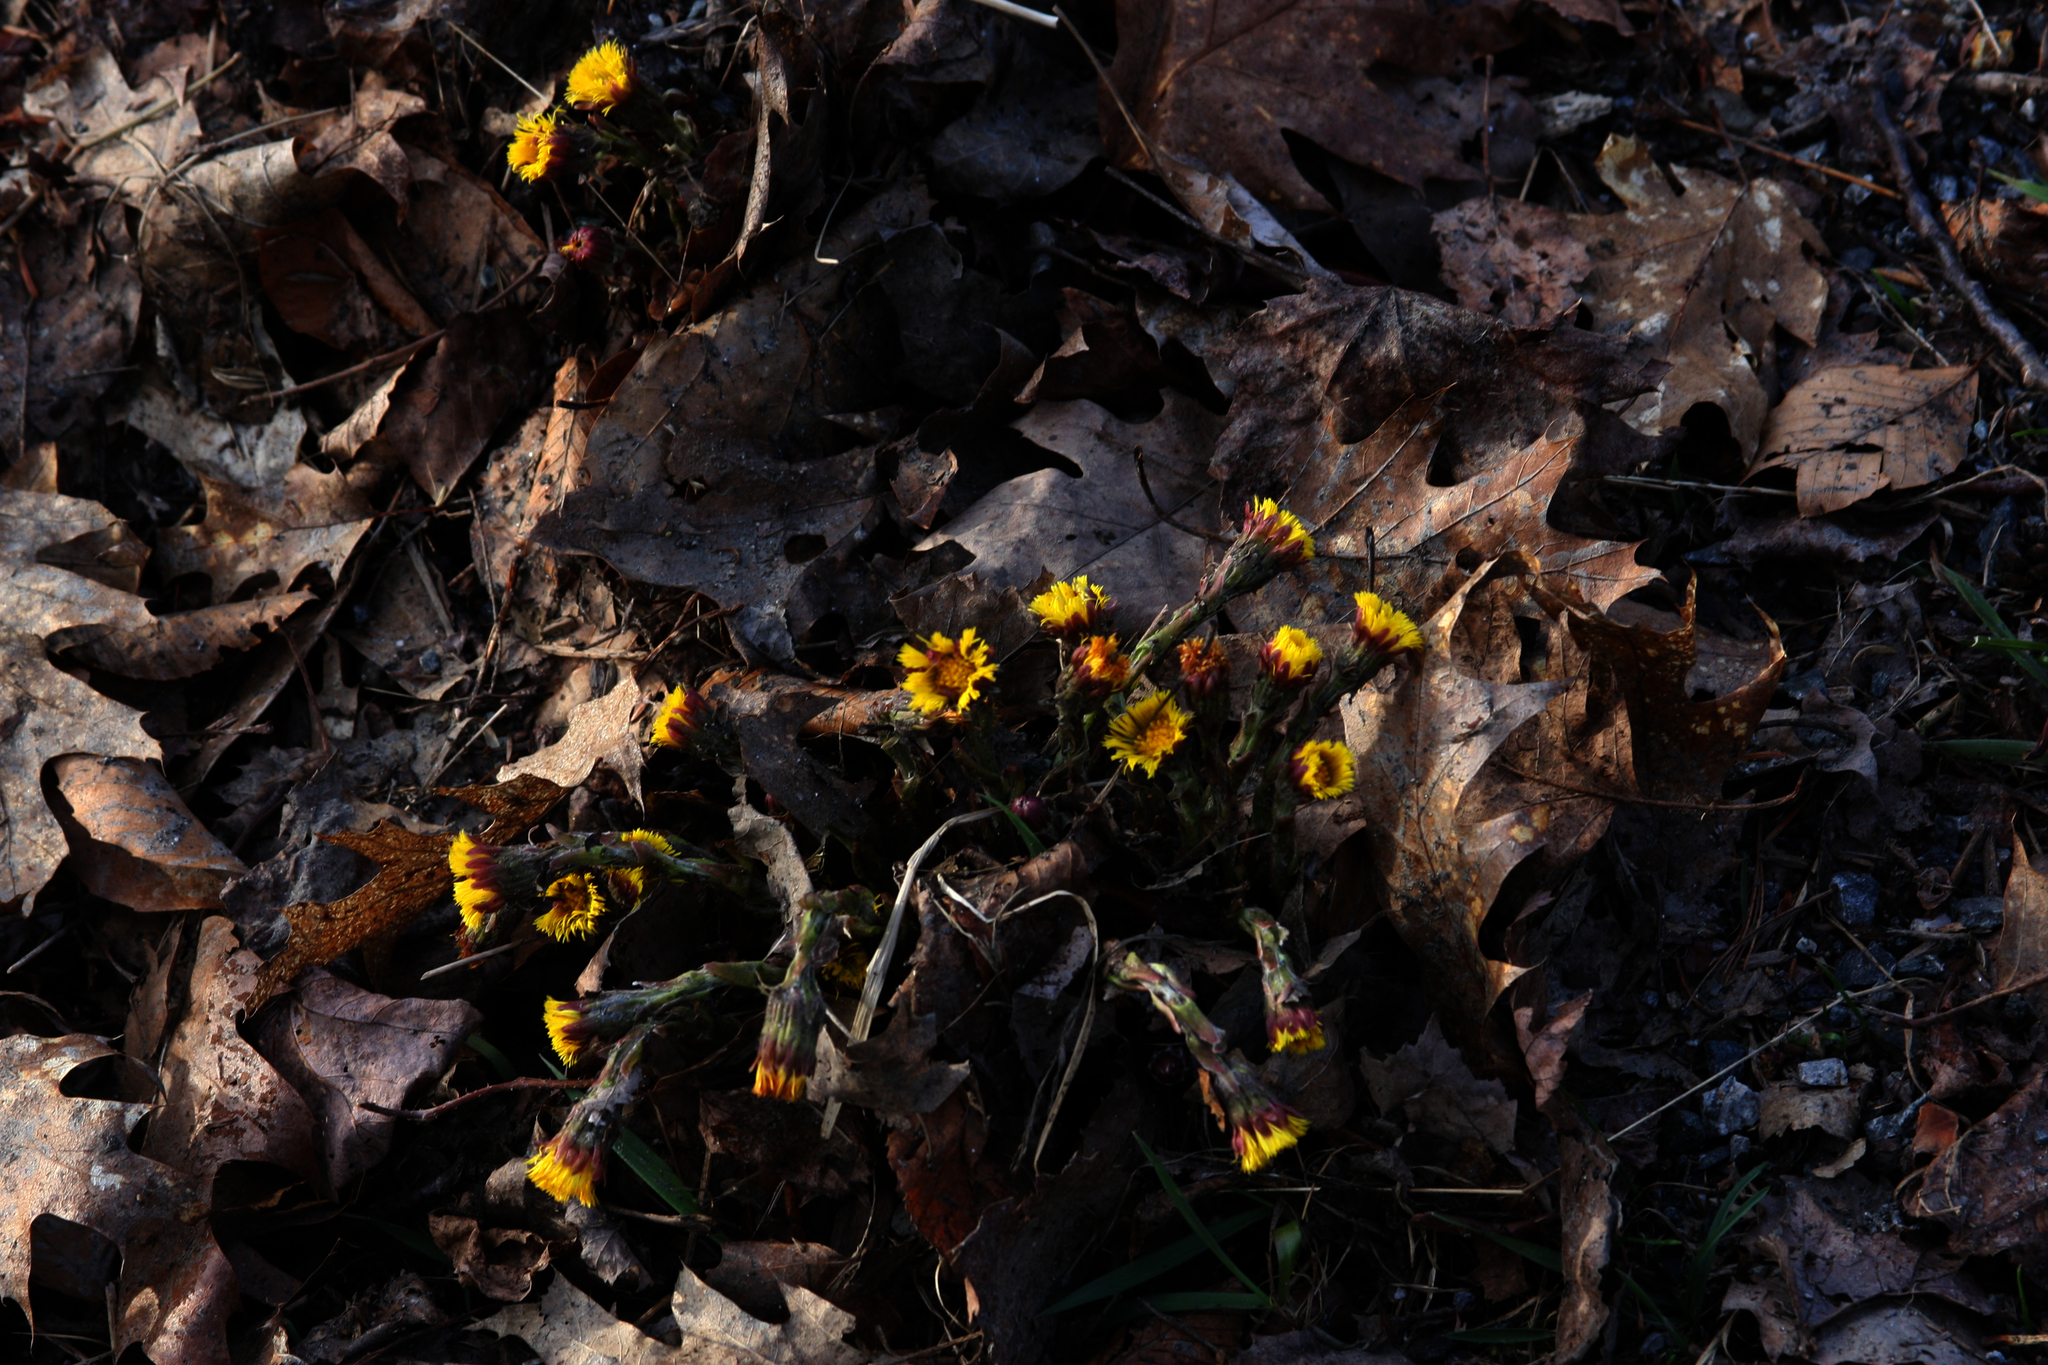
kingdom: Plantae
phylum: Tracheophyta
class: Magnoliopsida
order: Asterales
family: Asteraceae
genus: Tussilago
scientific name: Tussilago farfara
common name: Coltsfoot
